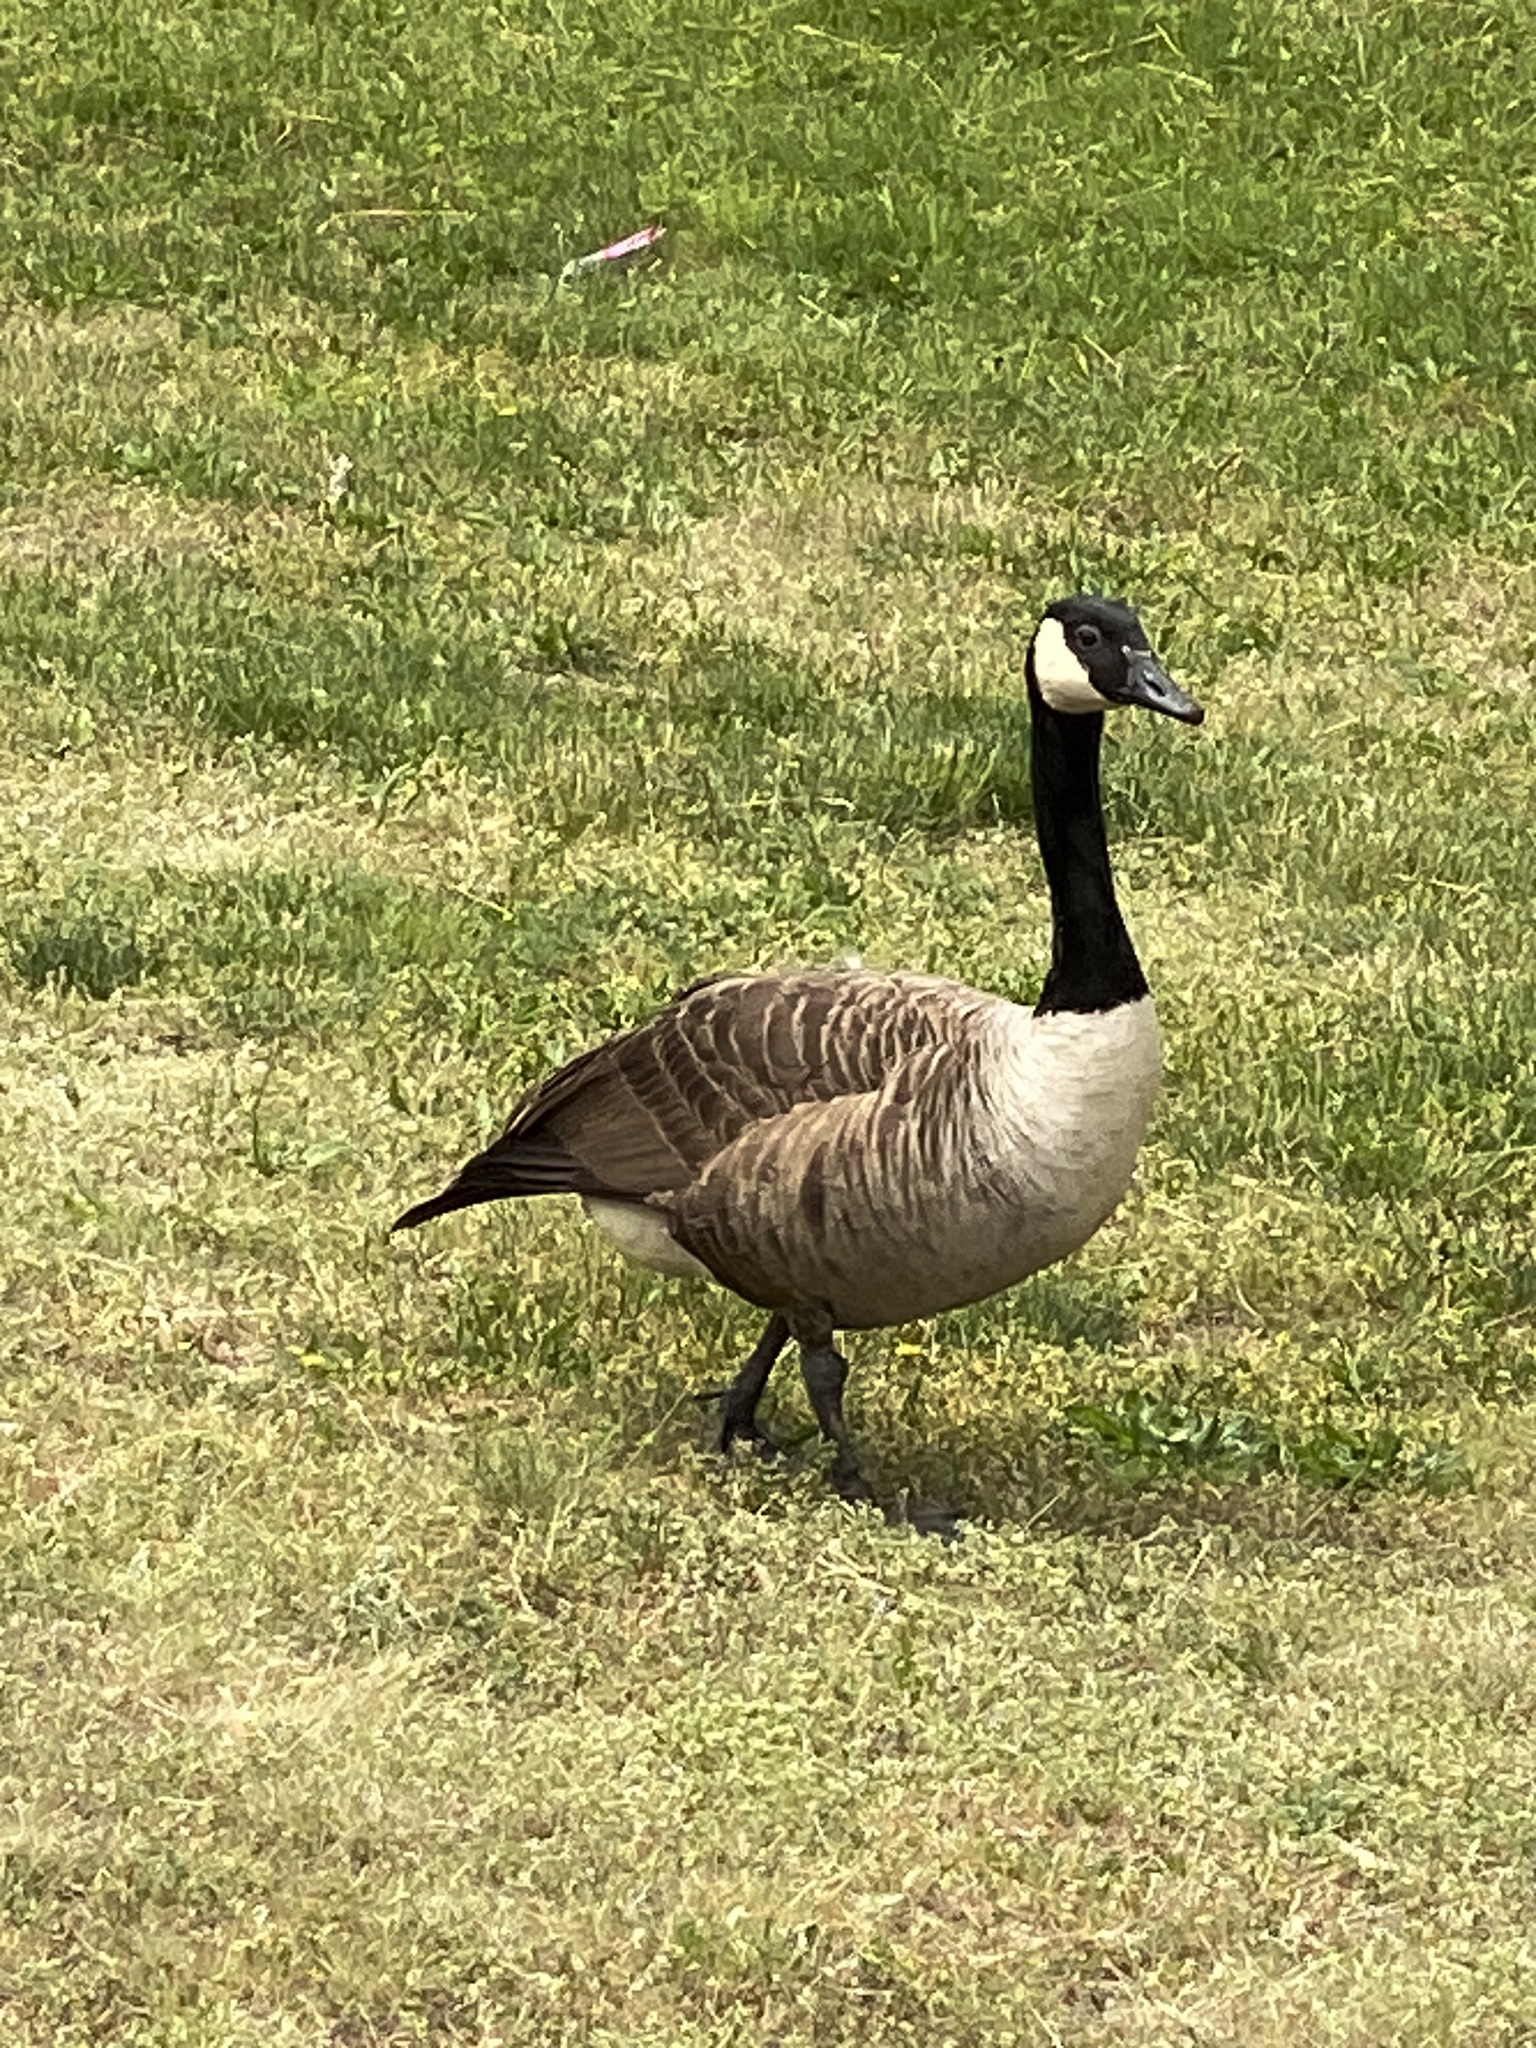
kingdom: Animalia
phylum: Chordata
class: Aves
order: Anseriformes
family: Anatidae
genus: Branta
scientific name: Branta canadensis
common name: Canada goose
